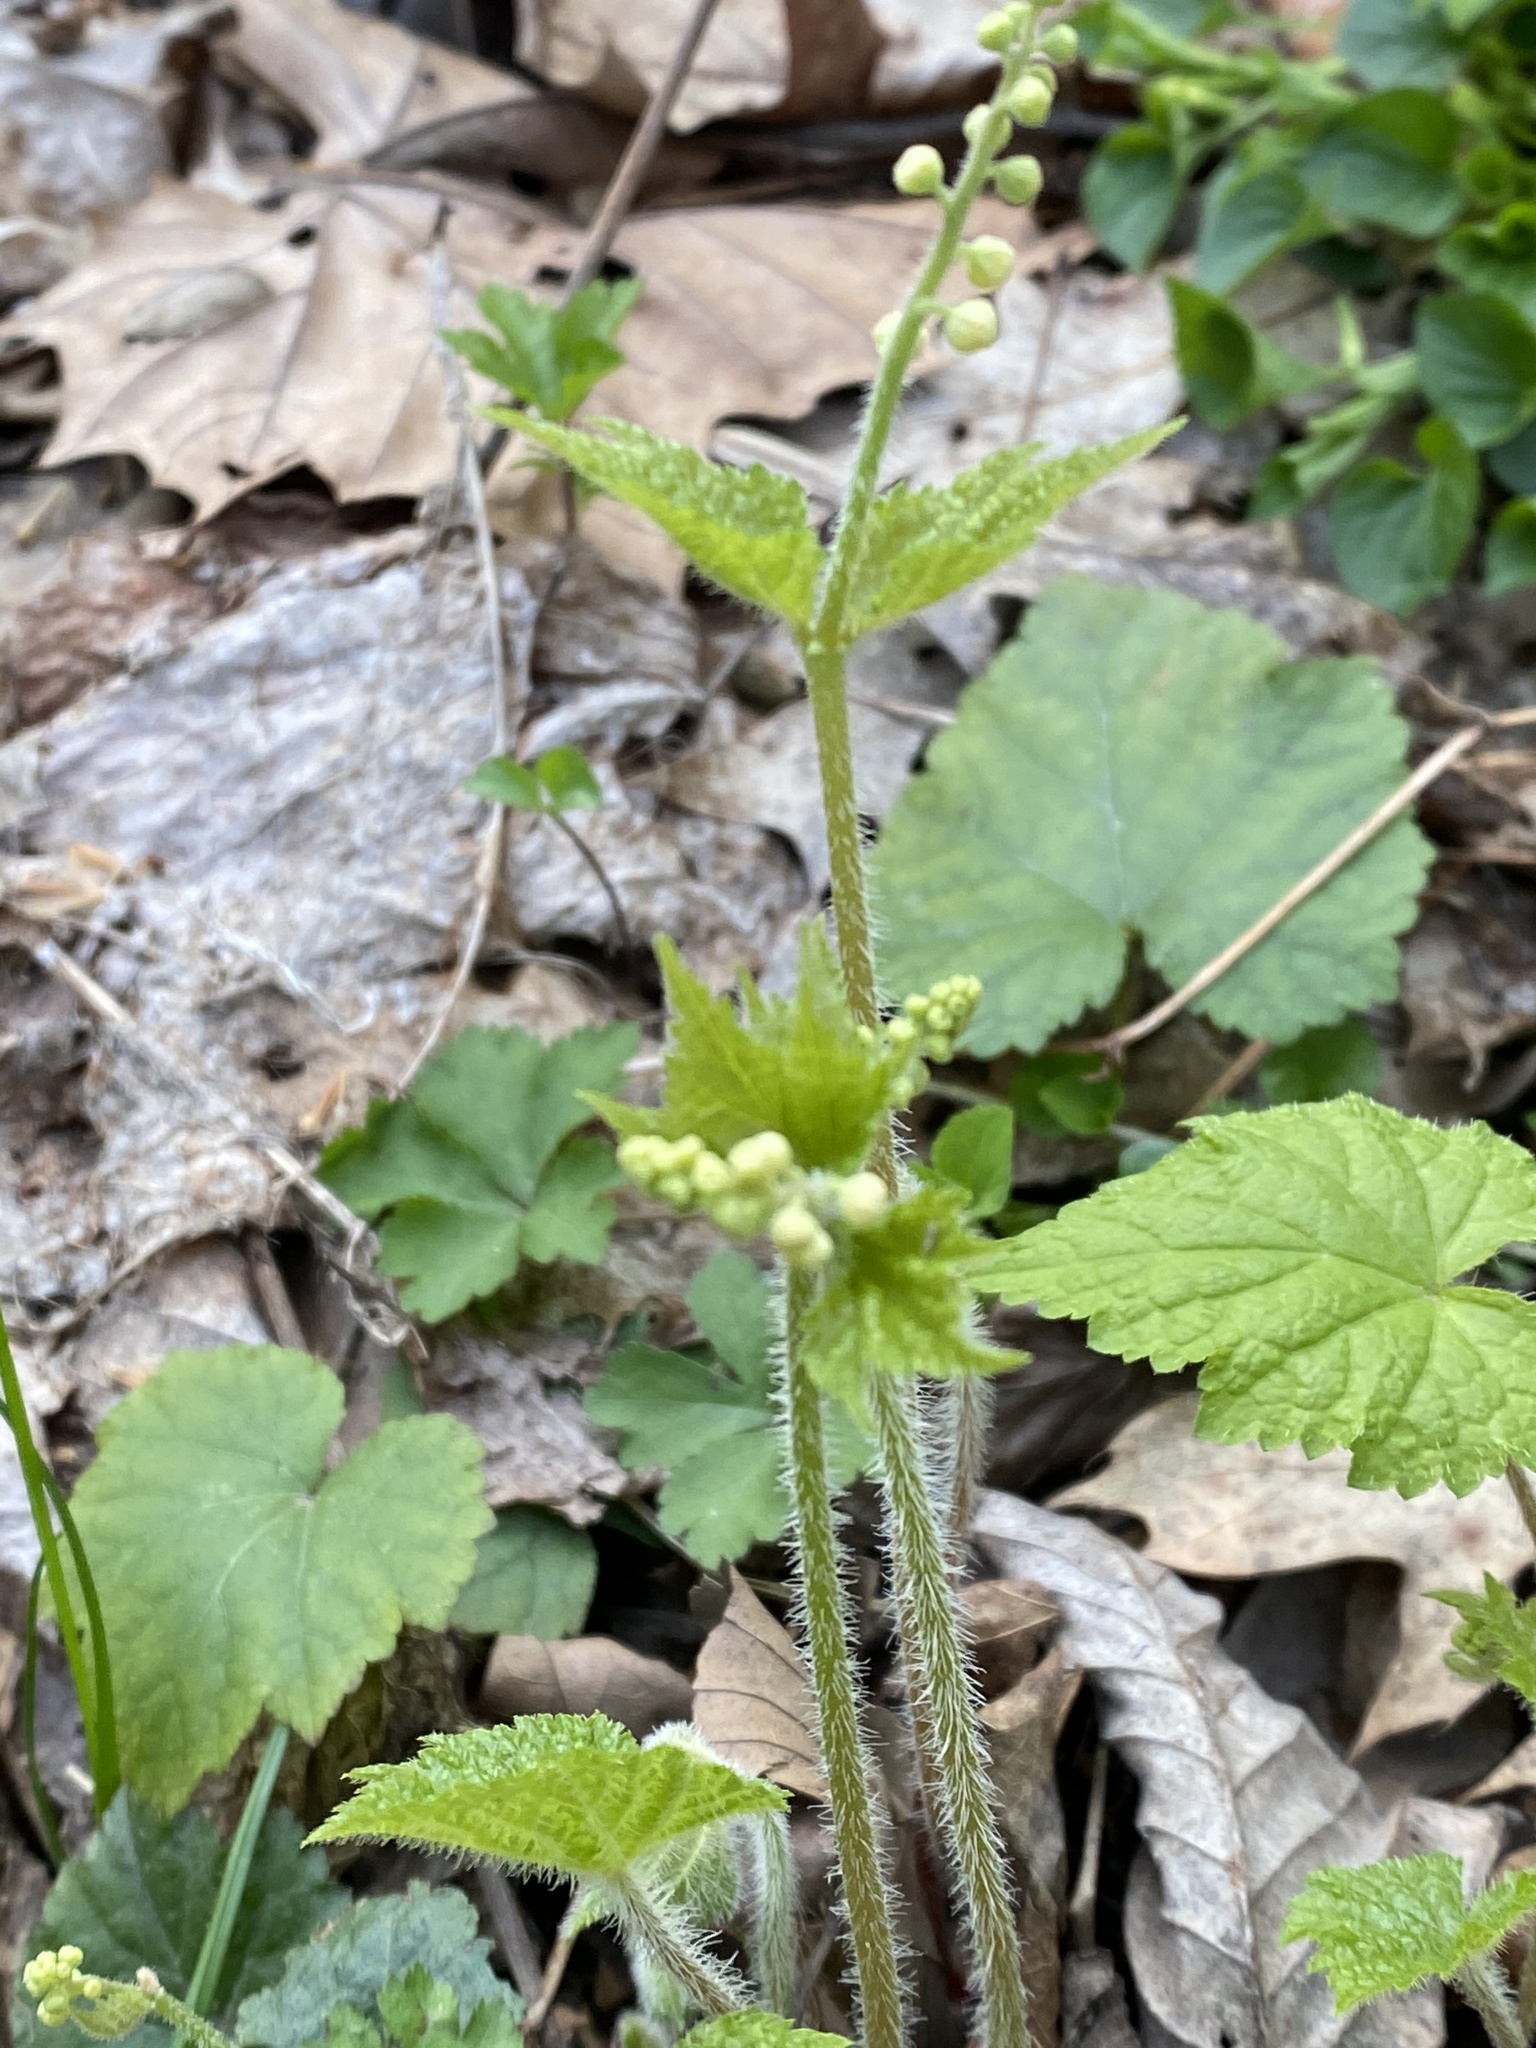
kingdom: Plantae
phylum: Tracheophyta
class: Magnoliopsida
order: Saxifragales
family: Saxifragaceae
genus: Mitella
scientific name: Mitella diphylla
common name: Coolwort
